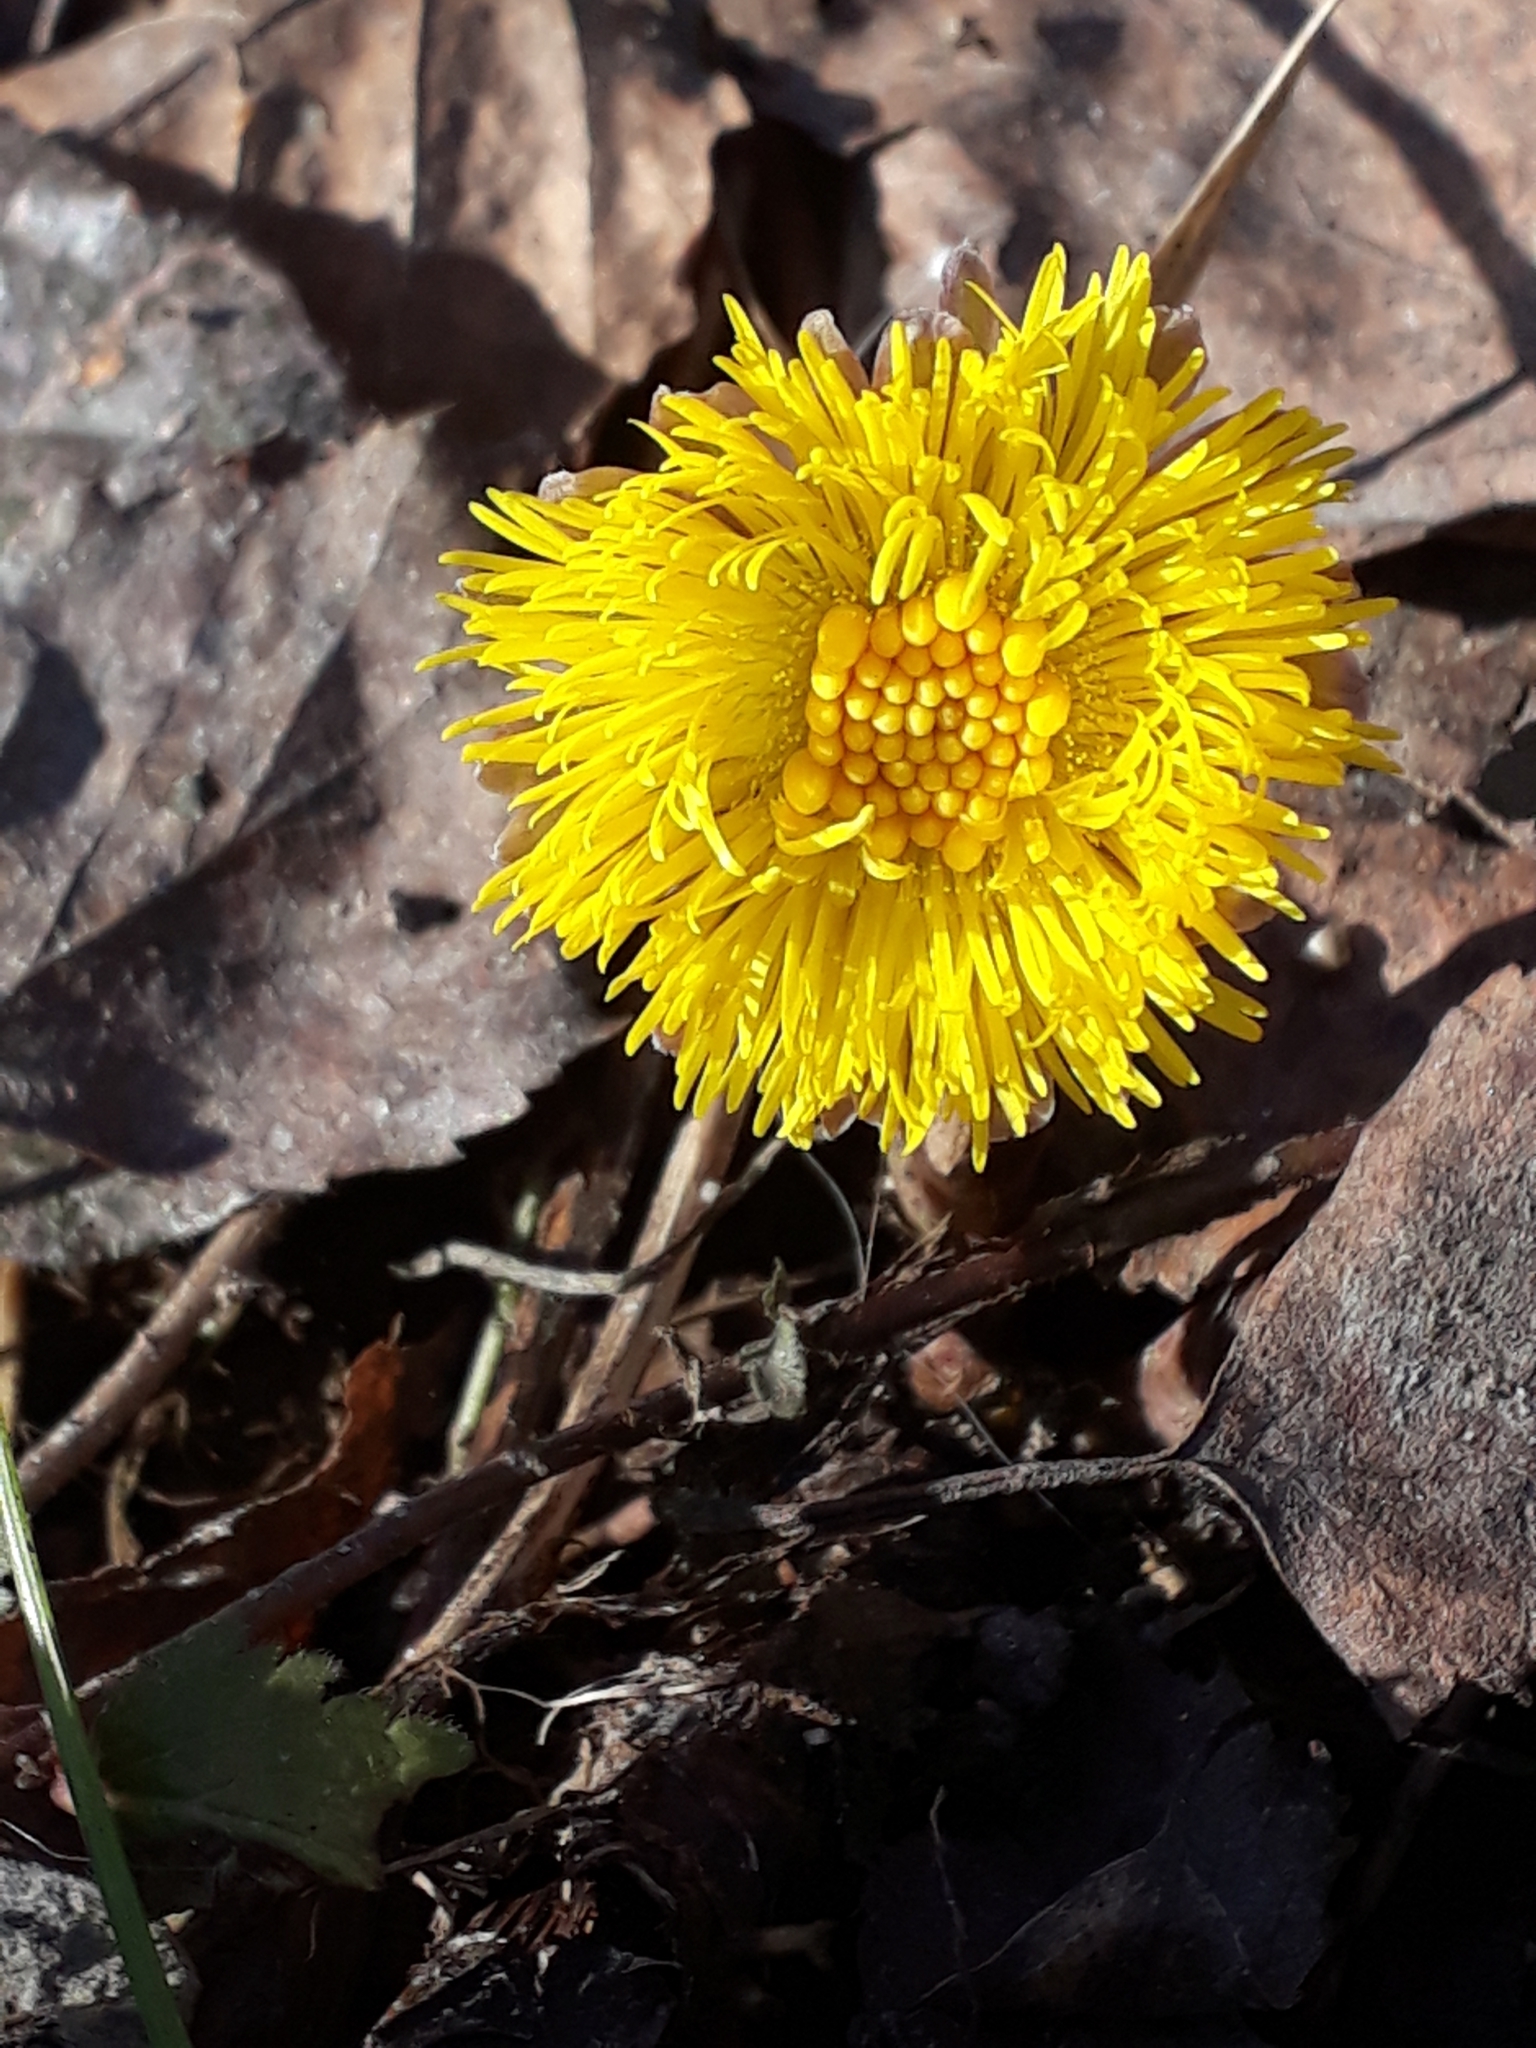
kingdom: Plantae
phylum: Tracheophyta
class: Magnoliopsida
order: Asterales
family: Asteraceae
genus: Tussilago
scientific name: Tussilago farfara
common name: Coltsfoot
